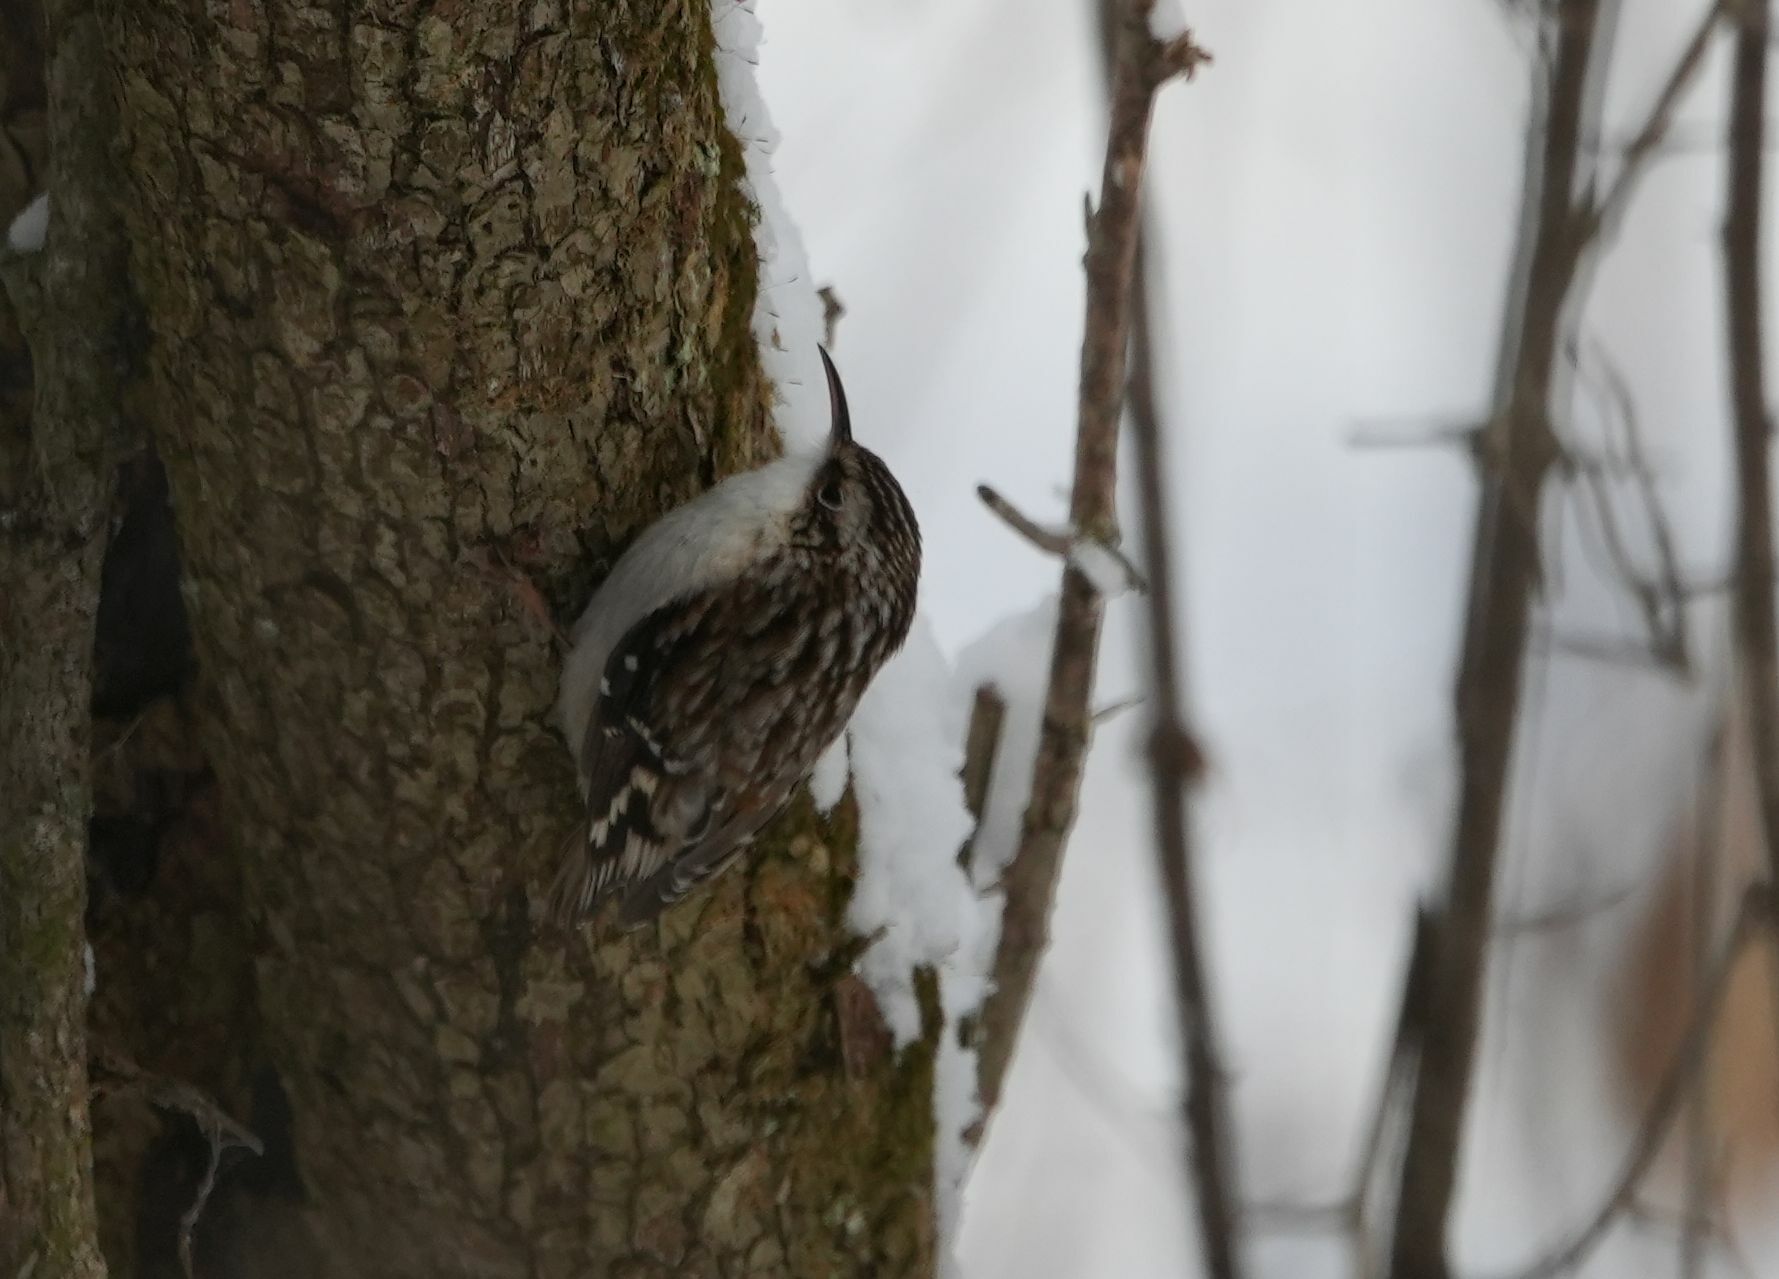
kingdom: Animalia
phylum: Chordata
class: Aves
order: Passeriformes
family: Certhiidae
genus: Certhia
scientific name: Certhia americana
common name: Brown creeper
